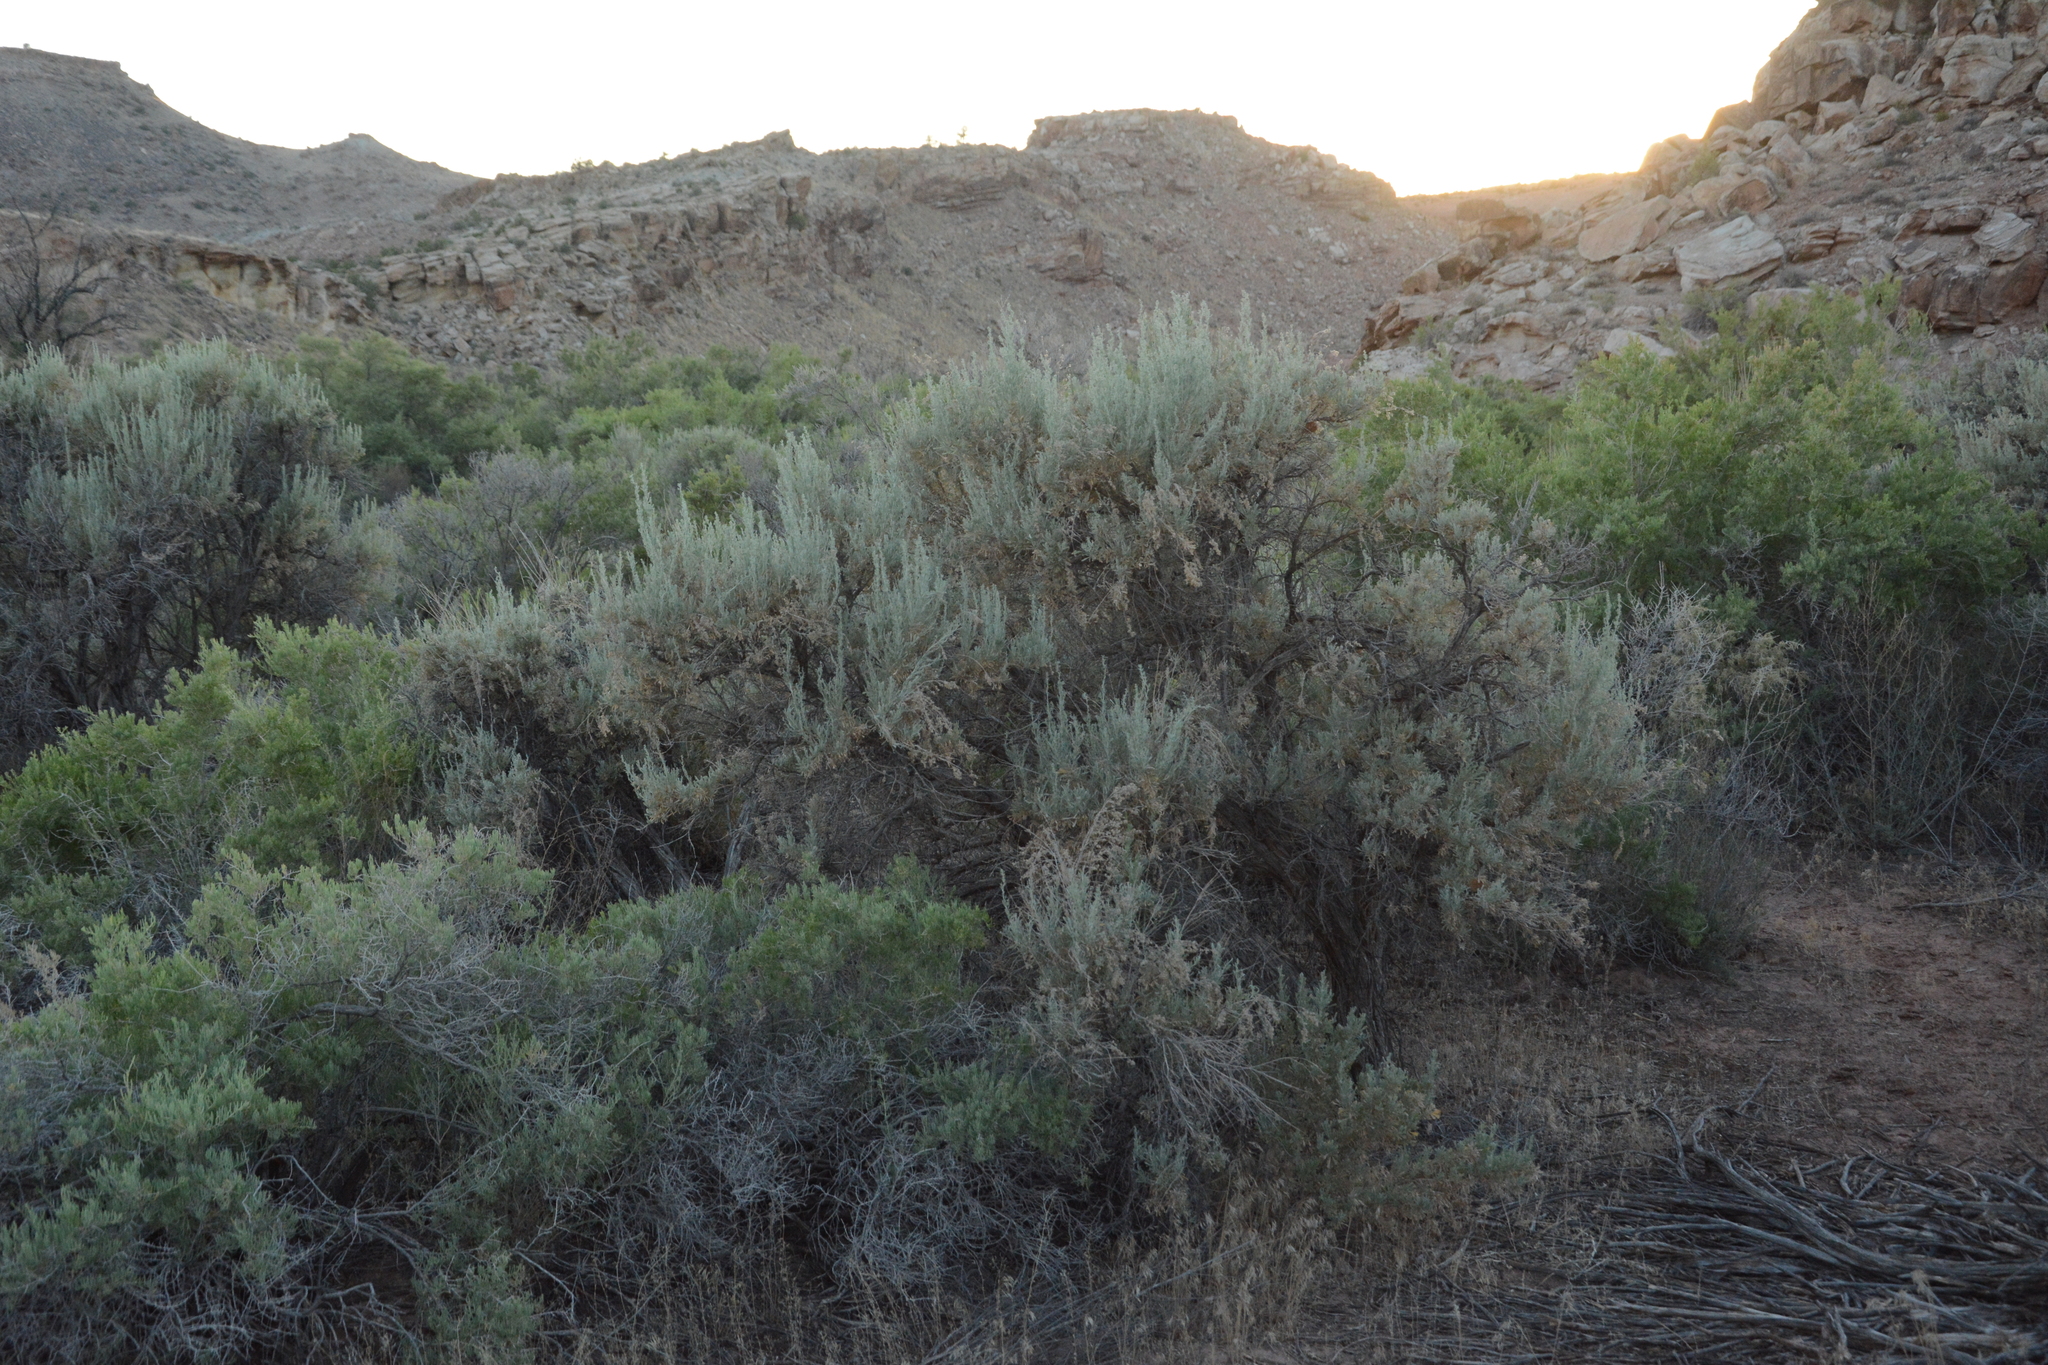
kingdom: Plantae
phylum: Tracheophyta
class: Magnoliopsida
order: Asterales
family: Asteraceae
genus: Artemisia
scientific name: Artemisia tridentata
